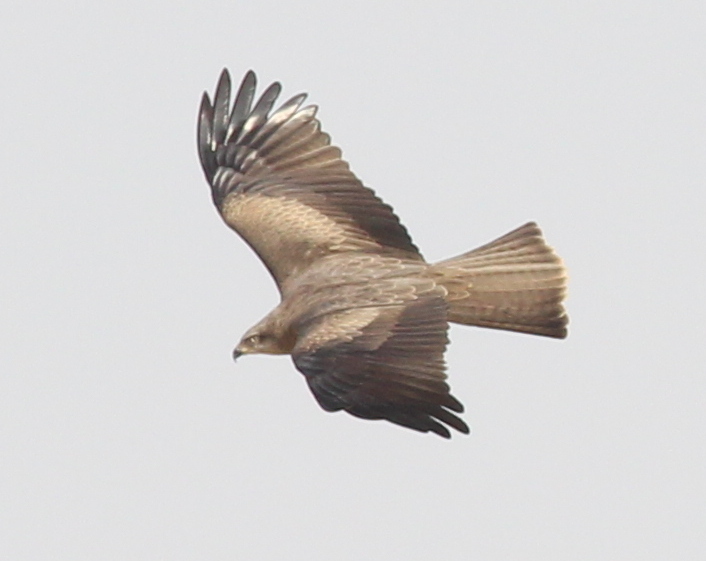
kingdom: Animalia
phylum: Chordata
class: Aves
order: Accipitriformes
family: Accipitridae
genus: Milvus
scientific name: Milvus migrans
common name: Black kite
